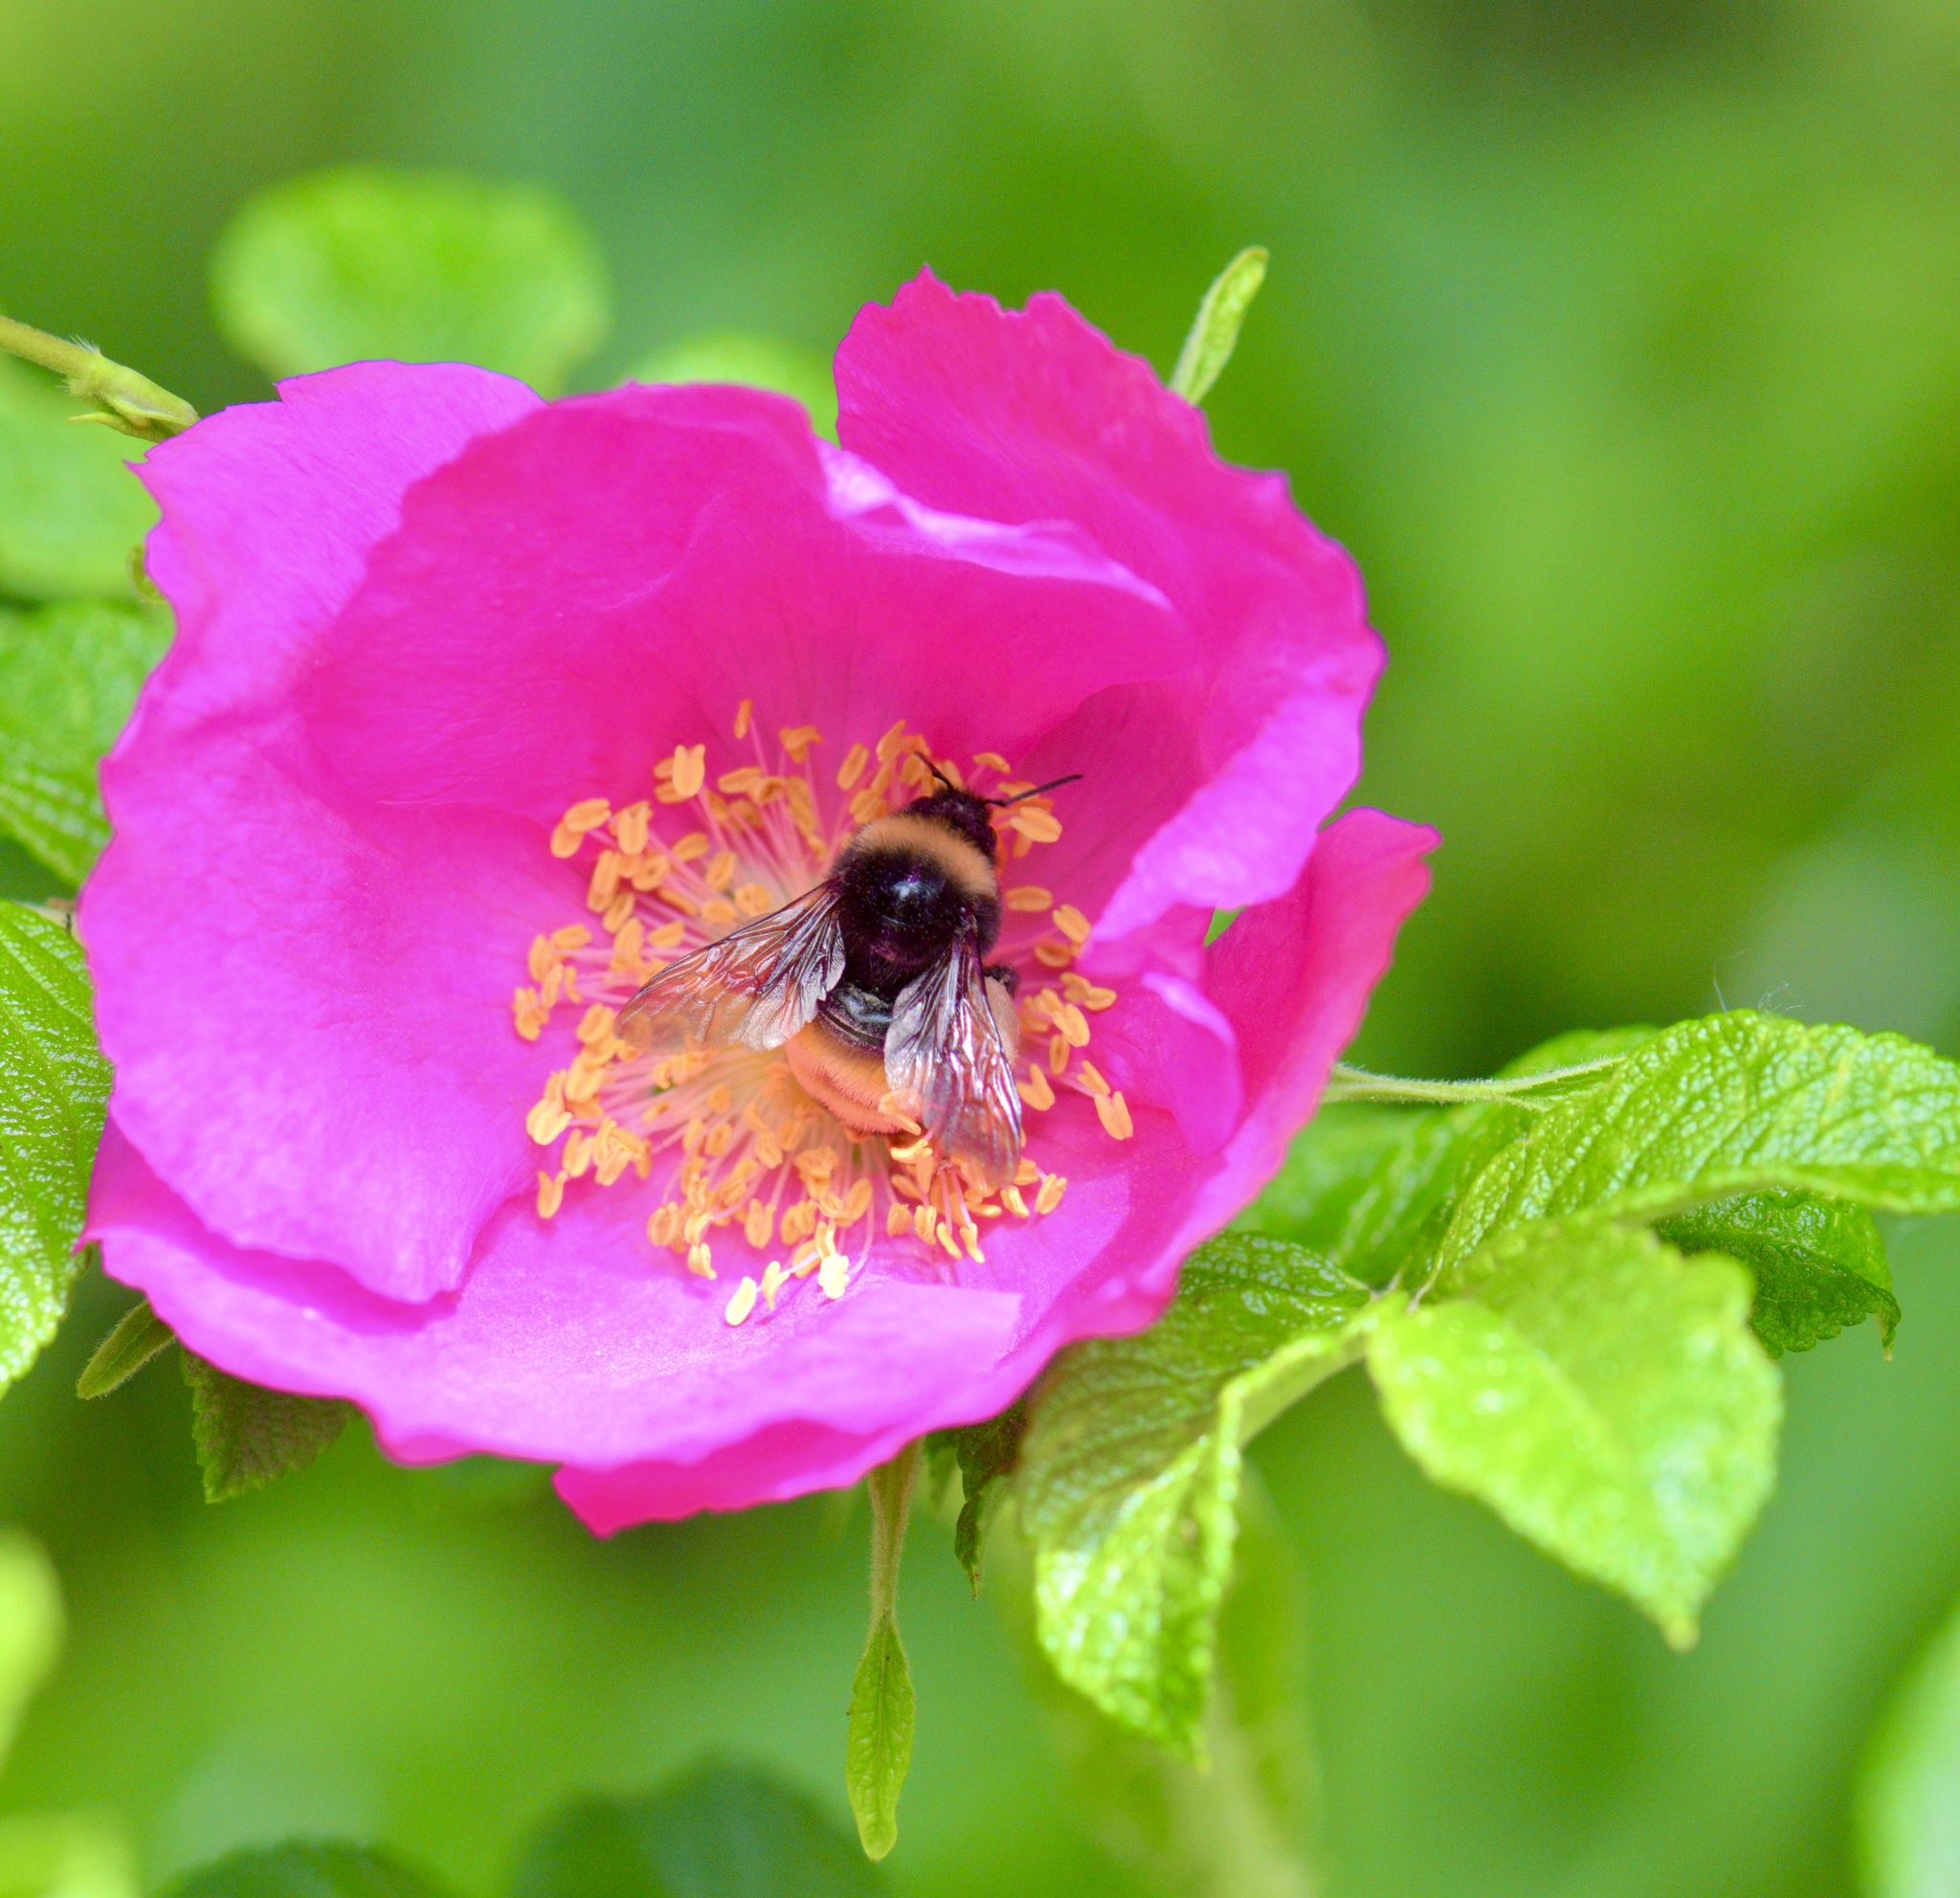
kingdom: Animalia
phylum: Arthropoda
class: Insecta
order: Hymenoptera
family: Apidae
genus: Bombus
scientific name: Bombus terricola
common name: Yellow-banded bumble bee
